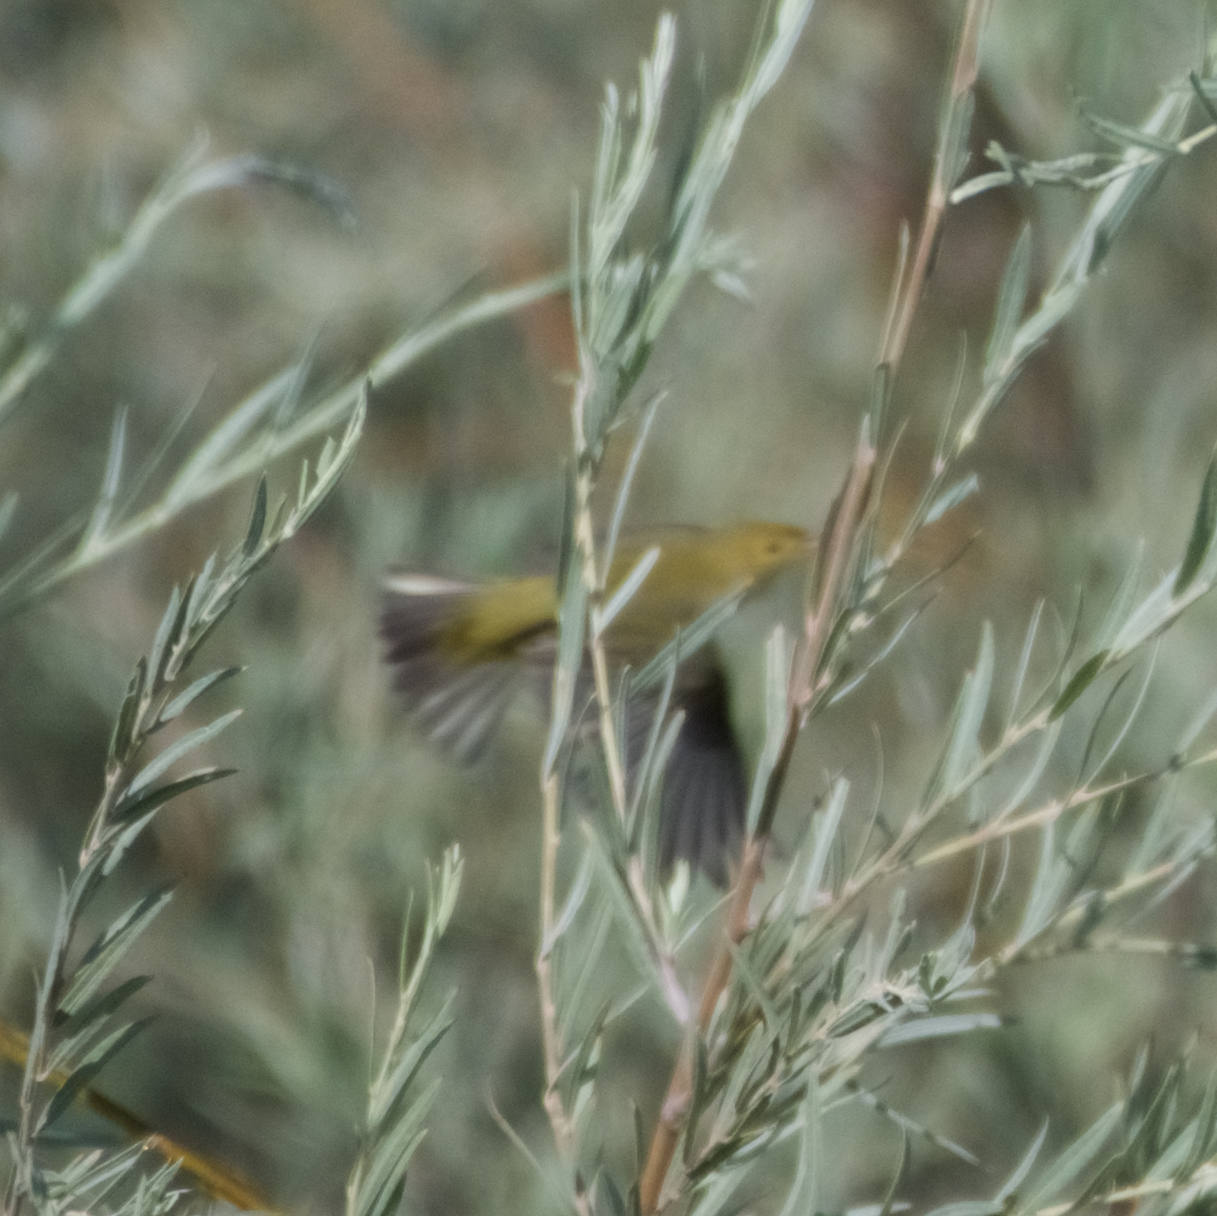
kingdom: Animalia
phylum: Chordata
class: Aves
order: Passeriformes
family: Parulidae
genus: Setophaga
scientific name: Setophaga petechia
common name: Yellow warbler
